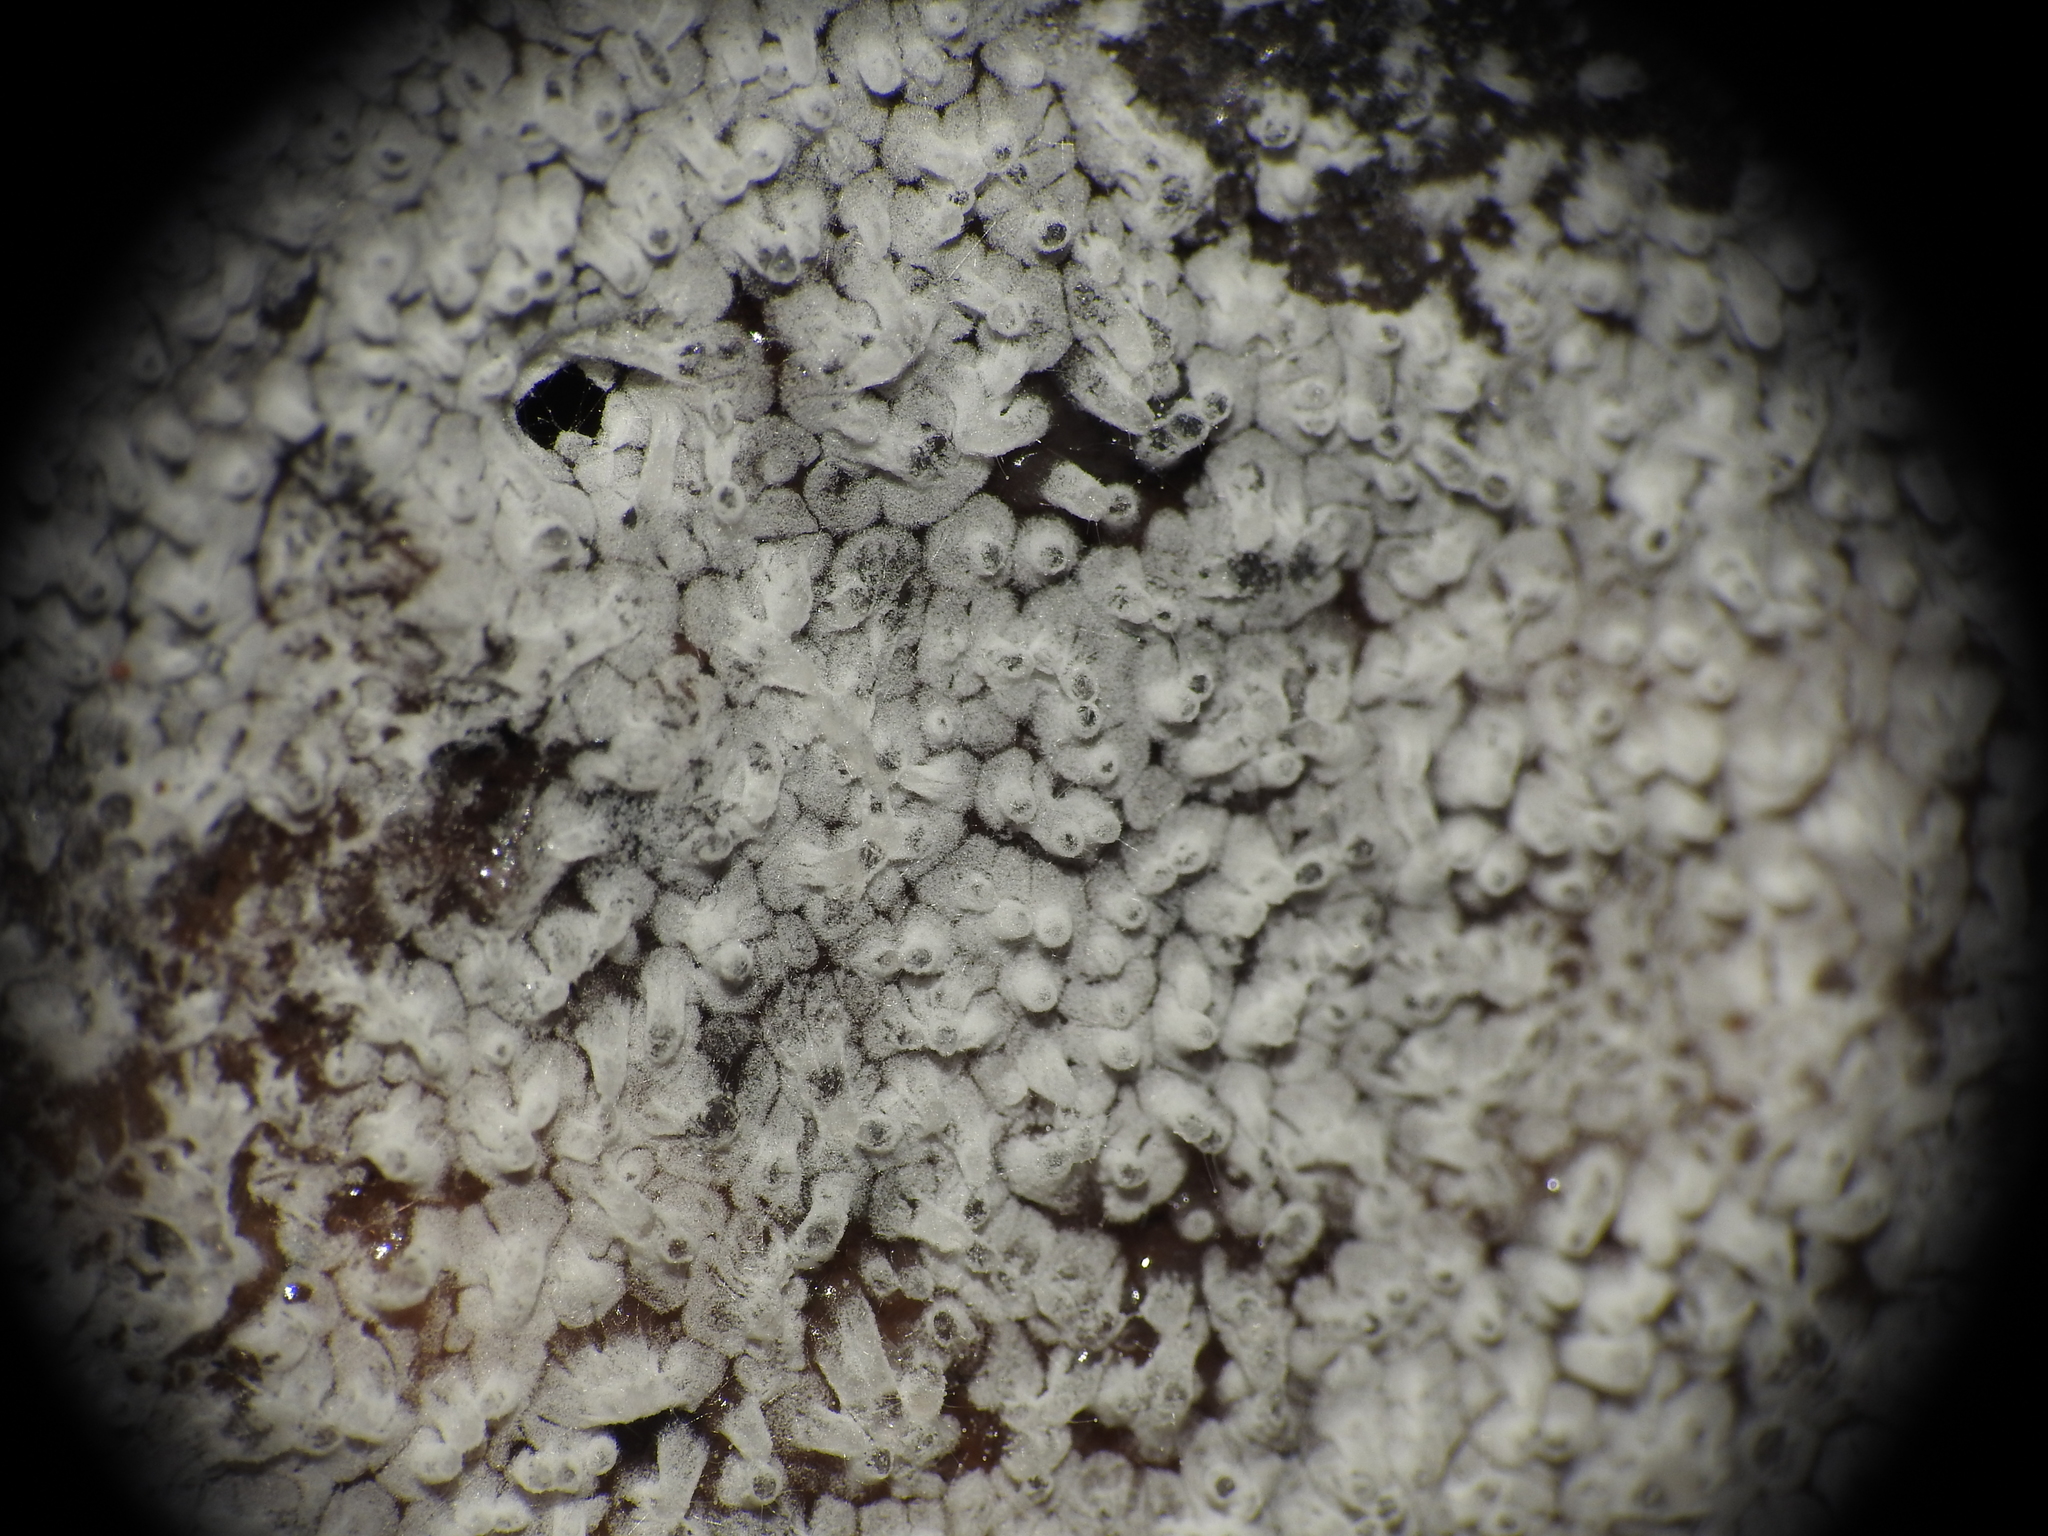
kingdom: Protozoa
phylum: Mycetozoa
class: Protosteliomycetes
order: Ceratiomyxales
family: Ceratiomyxaceae
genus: Ceratiomyxa
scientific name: Ceratiomyxa fruticulosa
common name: Honeycomb coral slime mold
